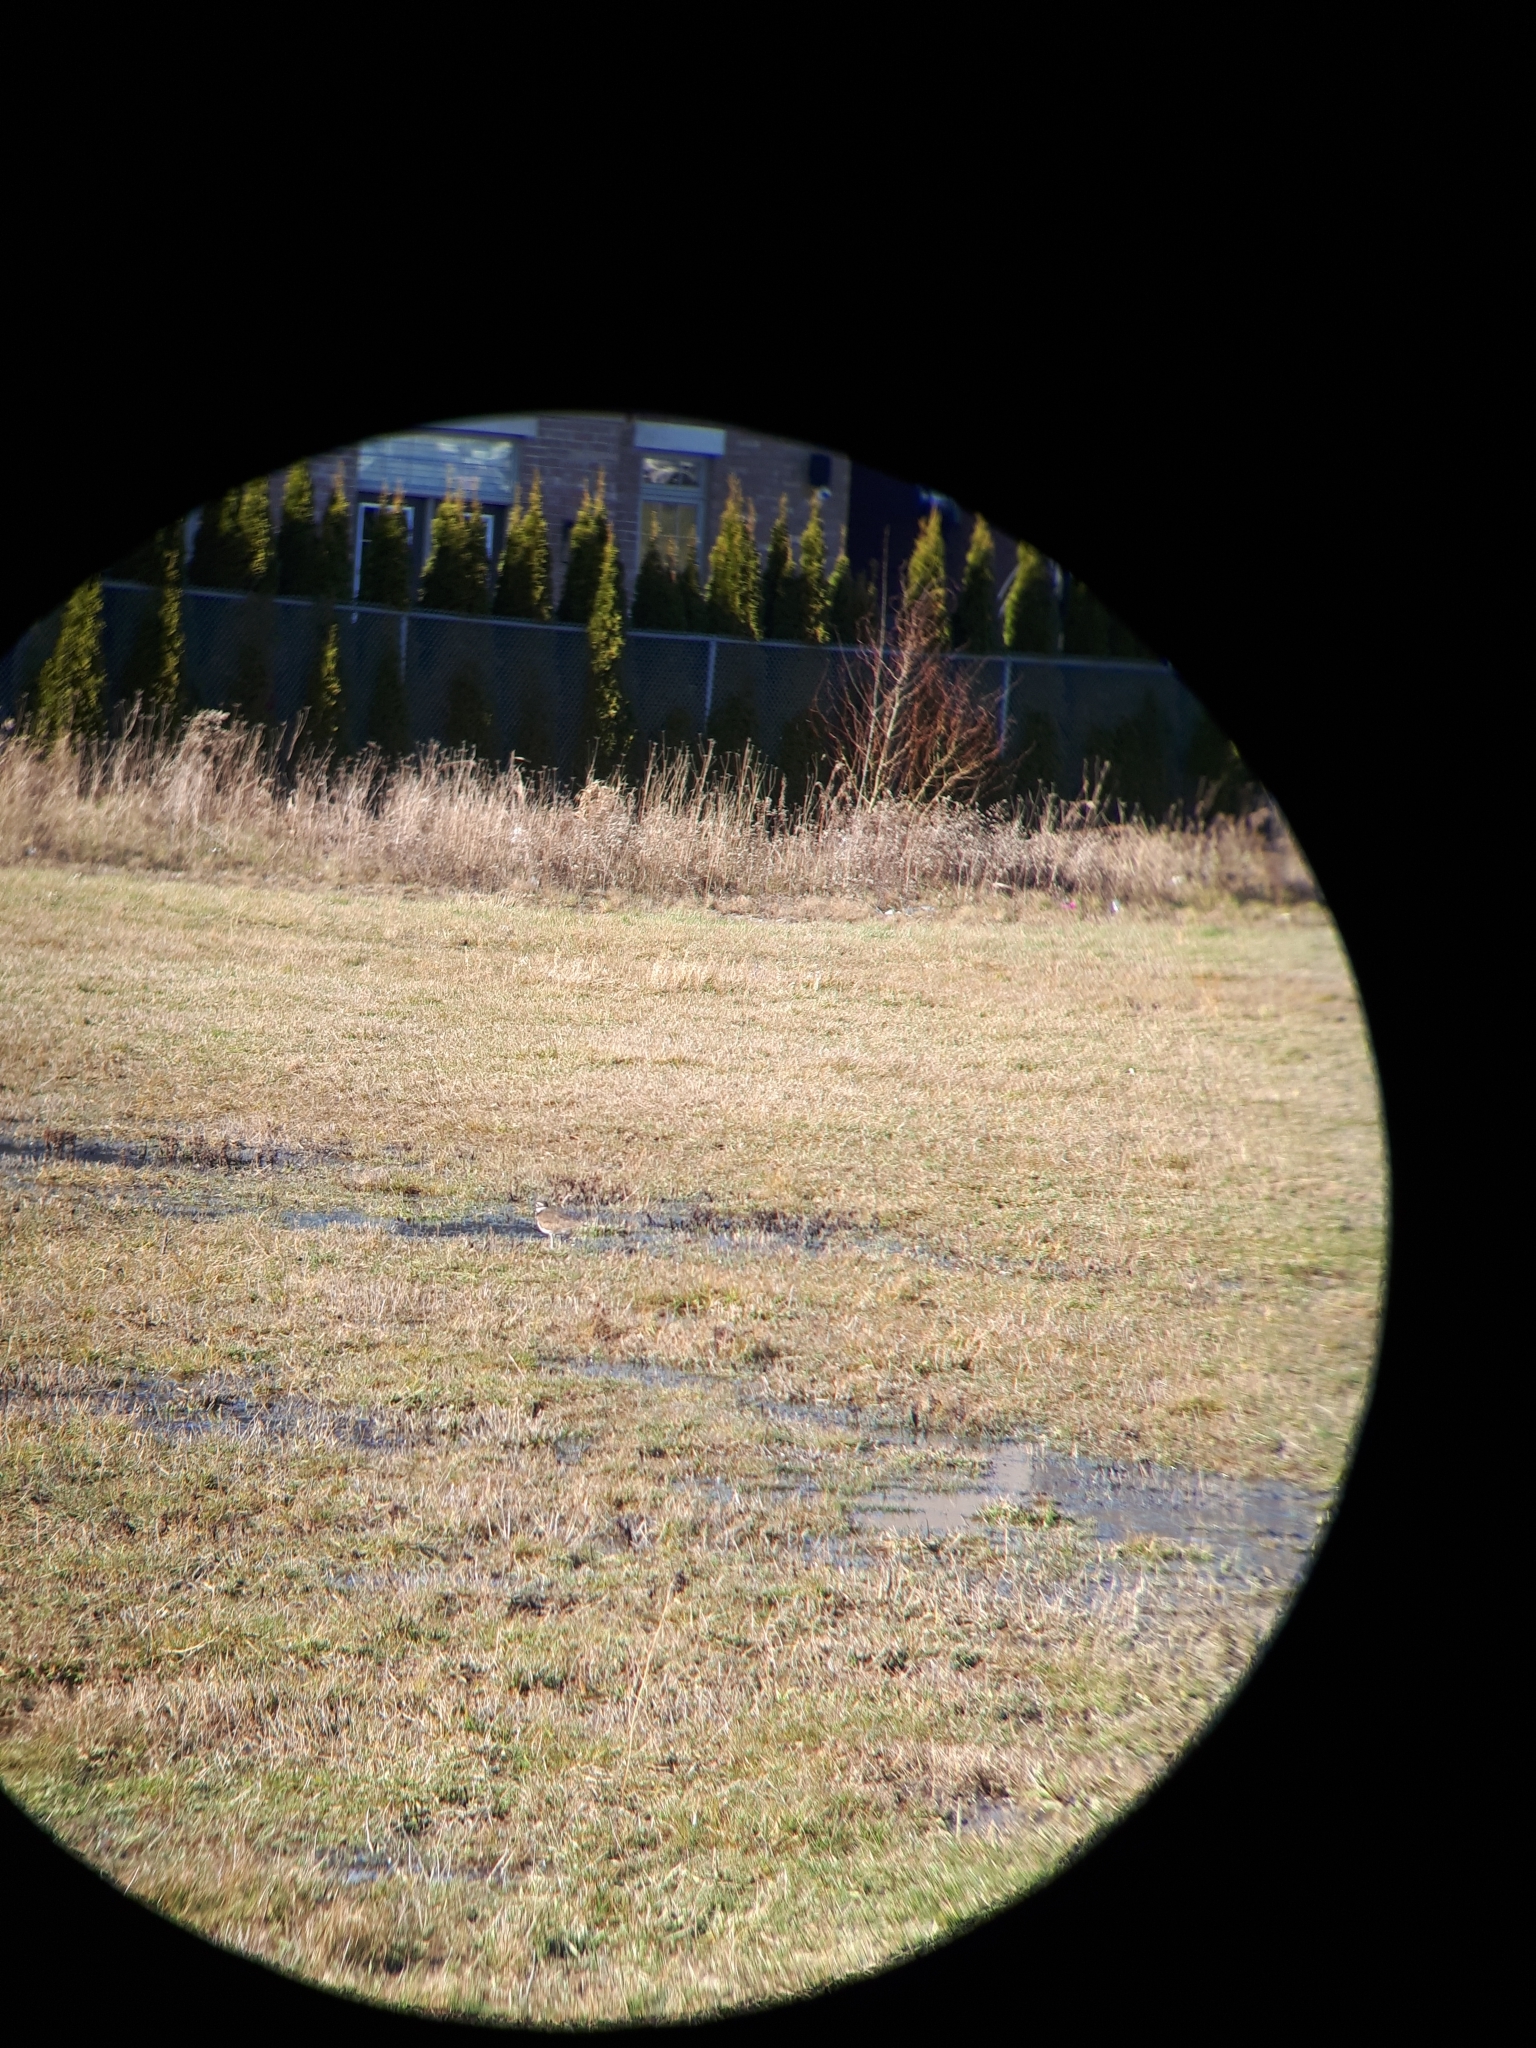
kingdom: Animalia
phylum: Chordata
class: Aves
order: Charadriiformes
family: Charadriidae
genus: Charadrius
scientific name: Charadrius vociferus
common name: Killdeer
